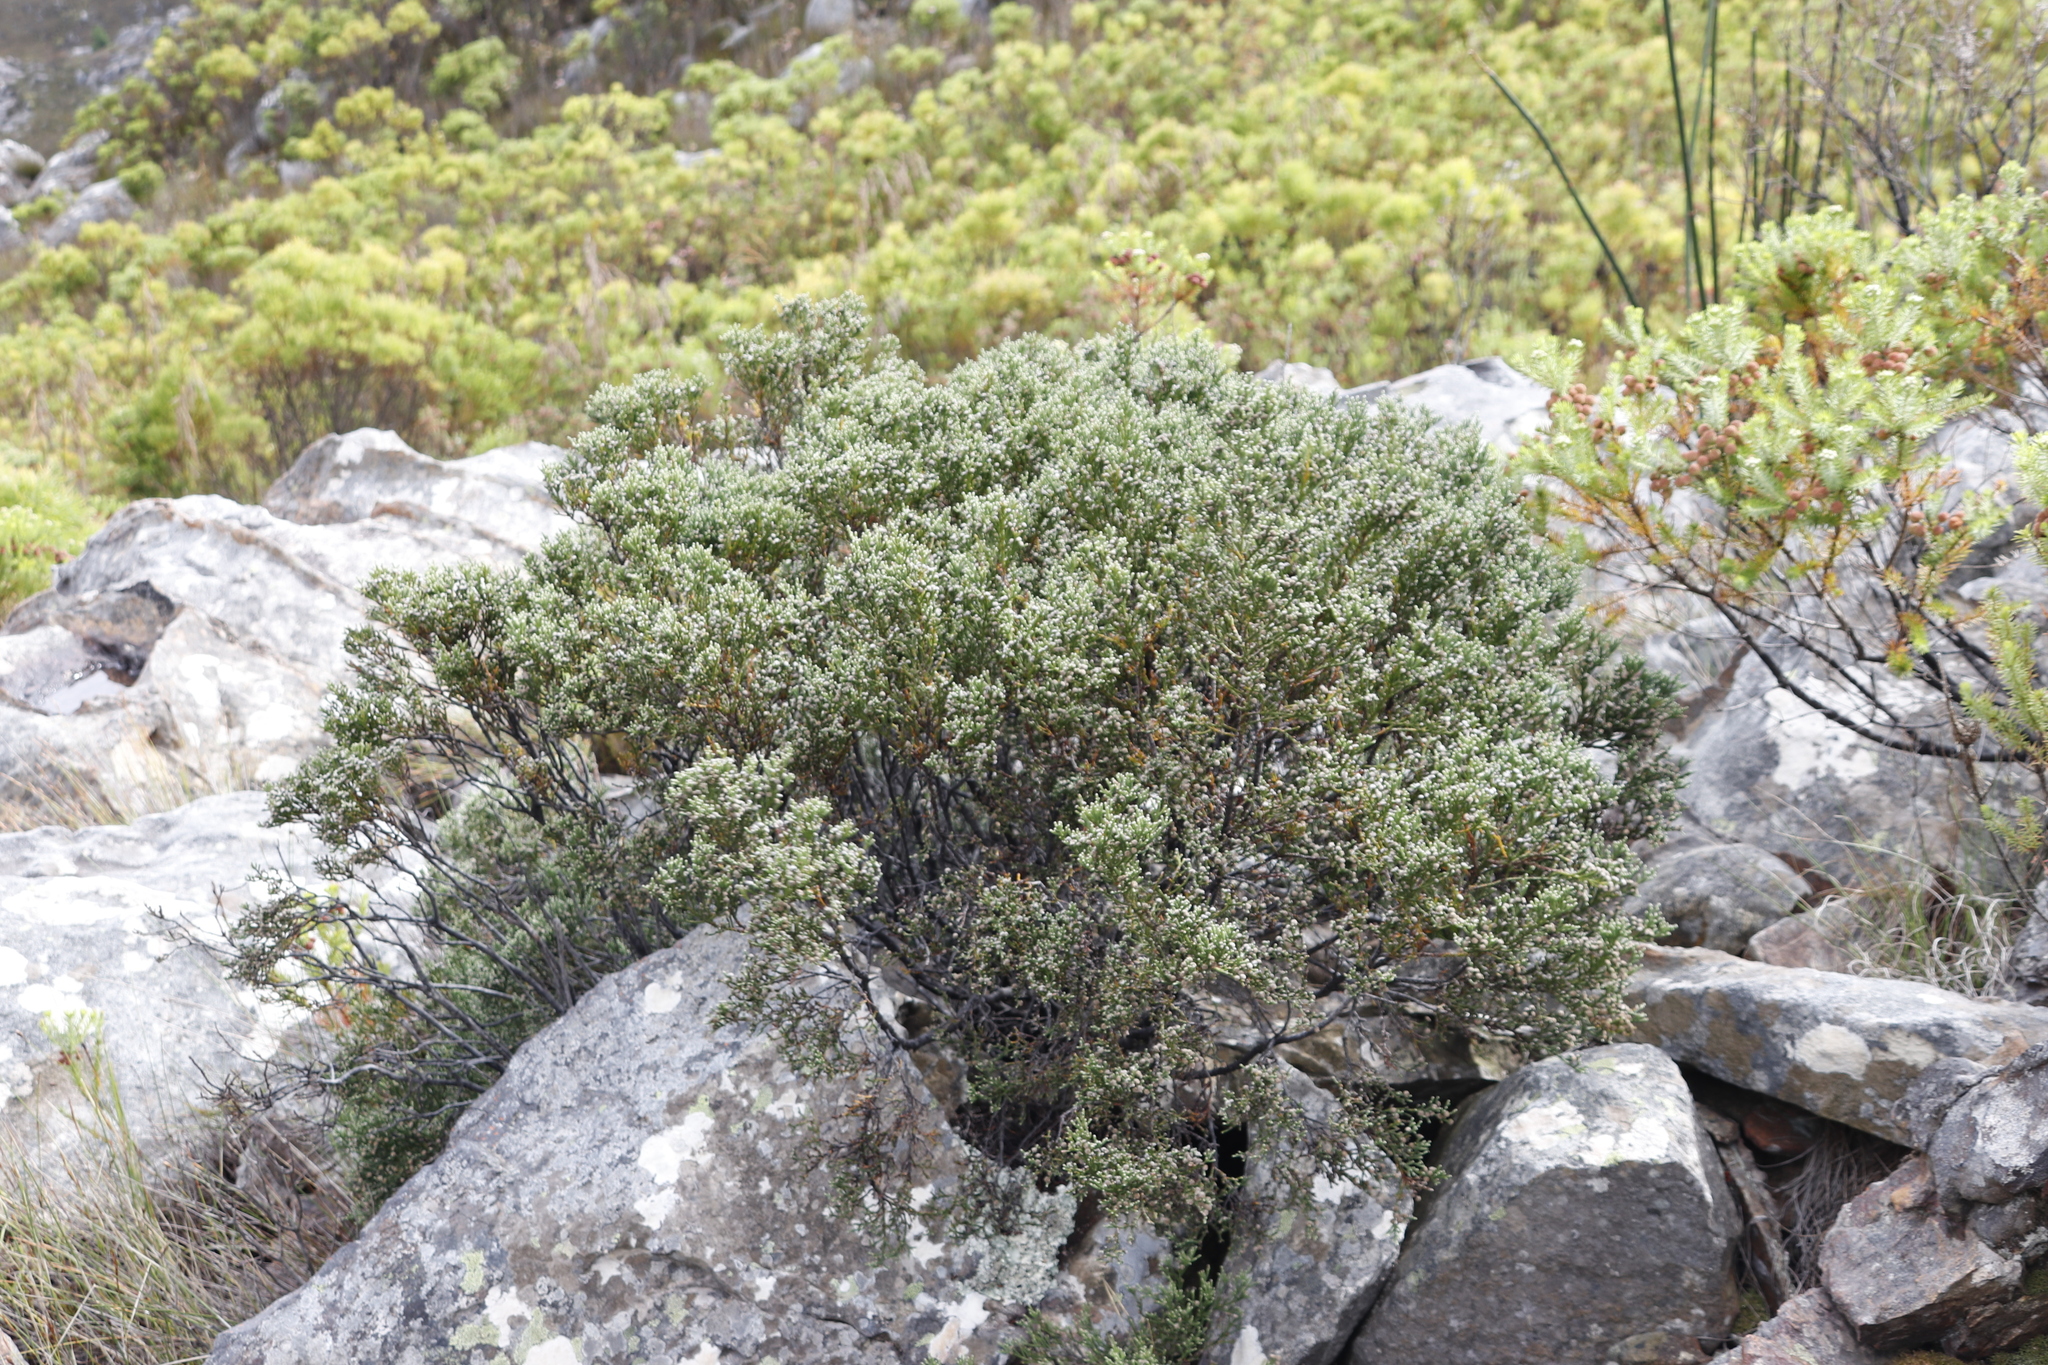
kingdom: Plantae
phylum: Tracheophyta
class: Magnoliopsida
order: Bruniales
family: Bruniaceae
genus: Brunia
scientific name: Brunia microphylla
